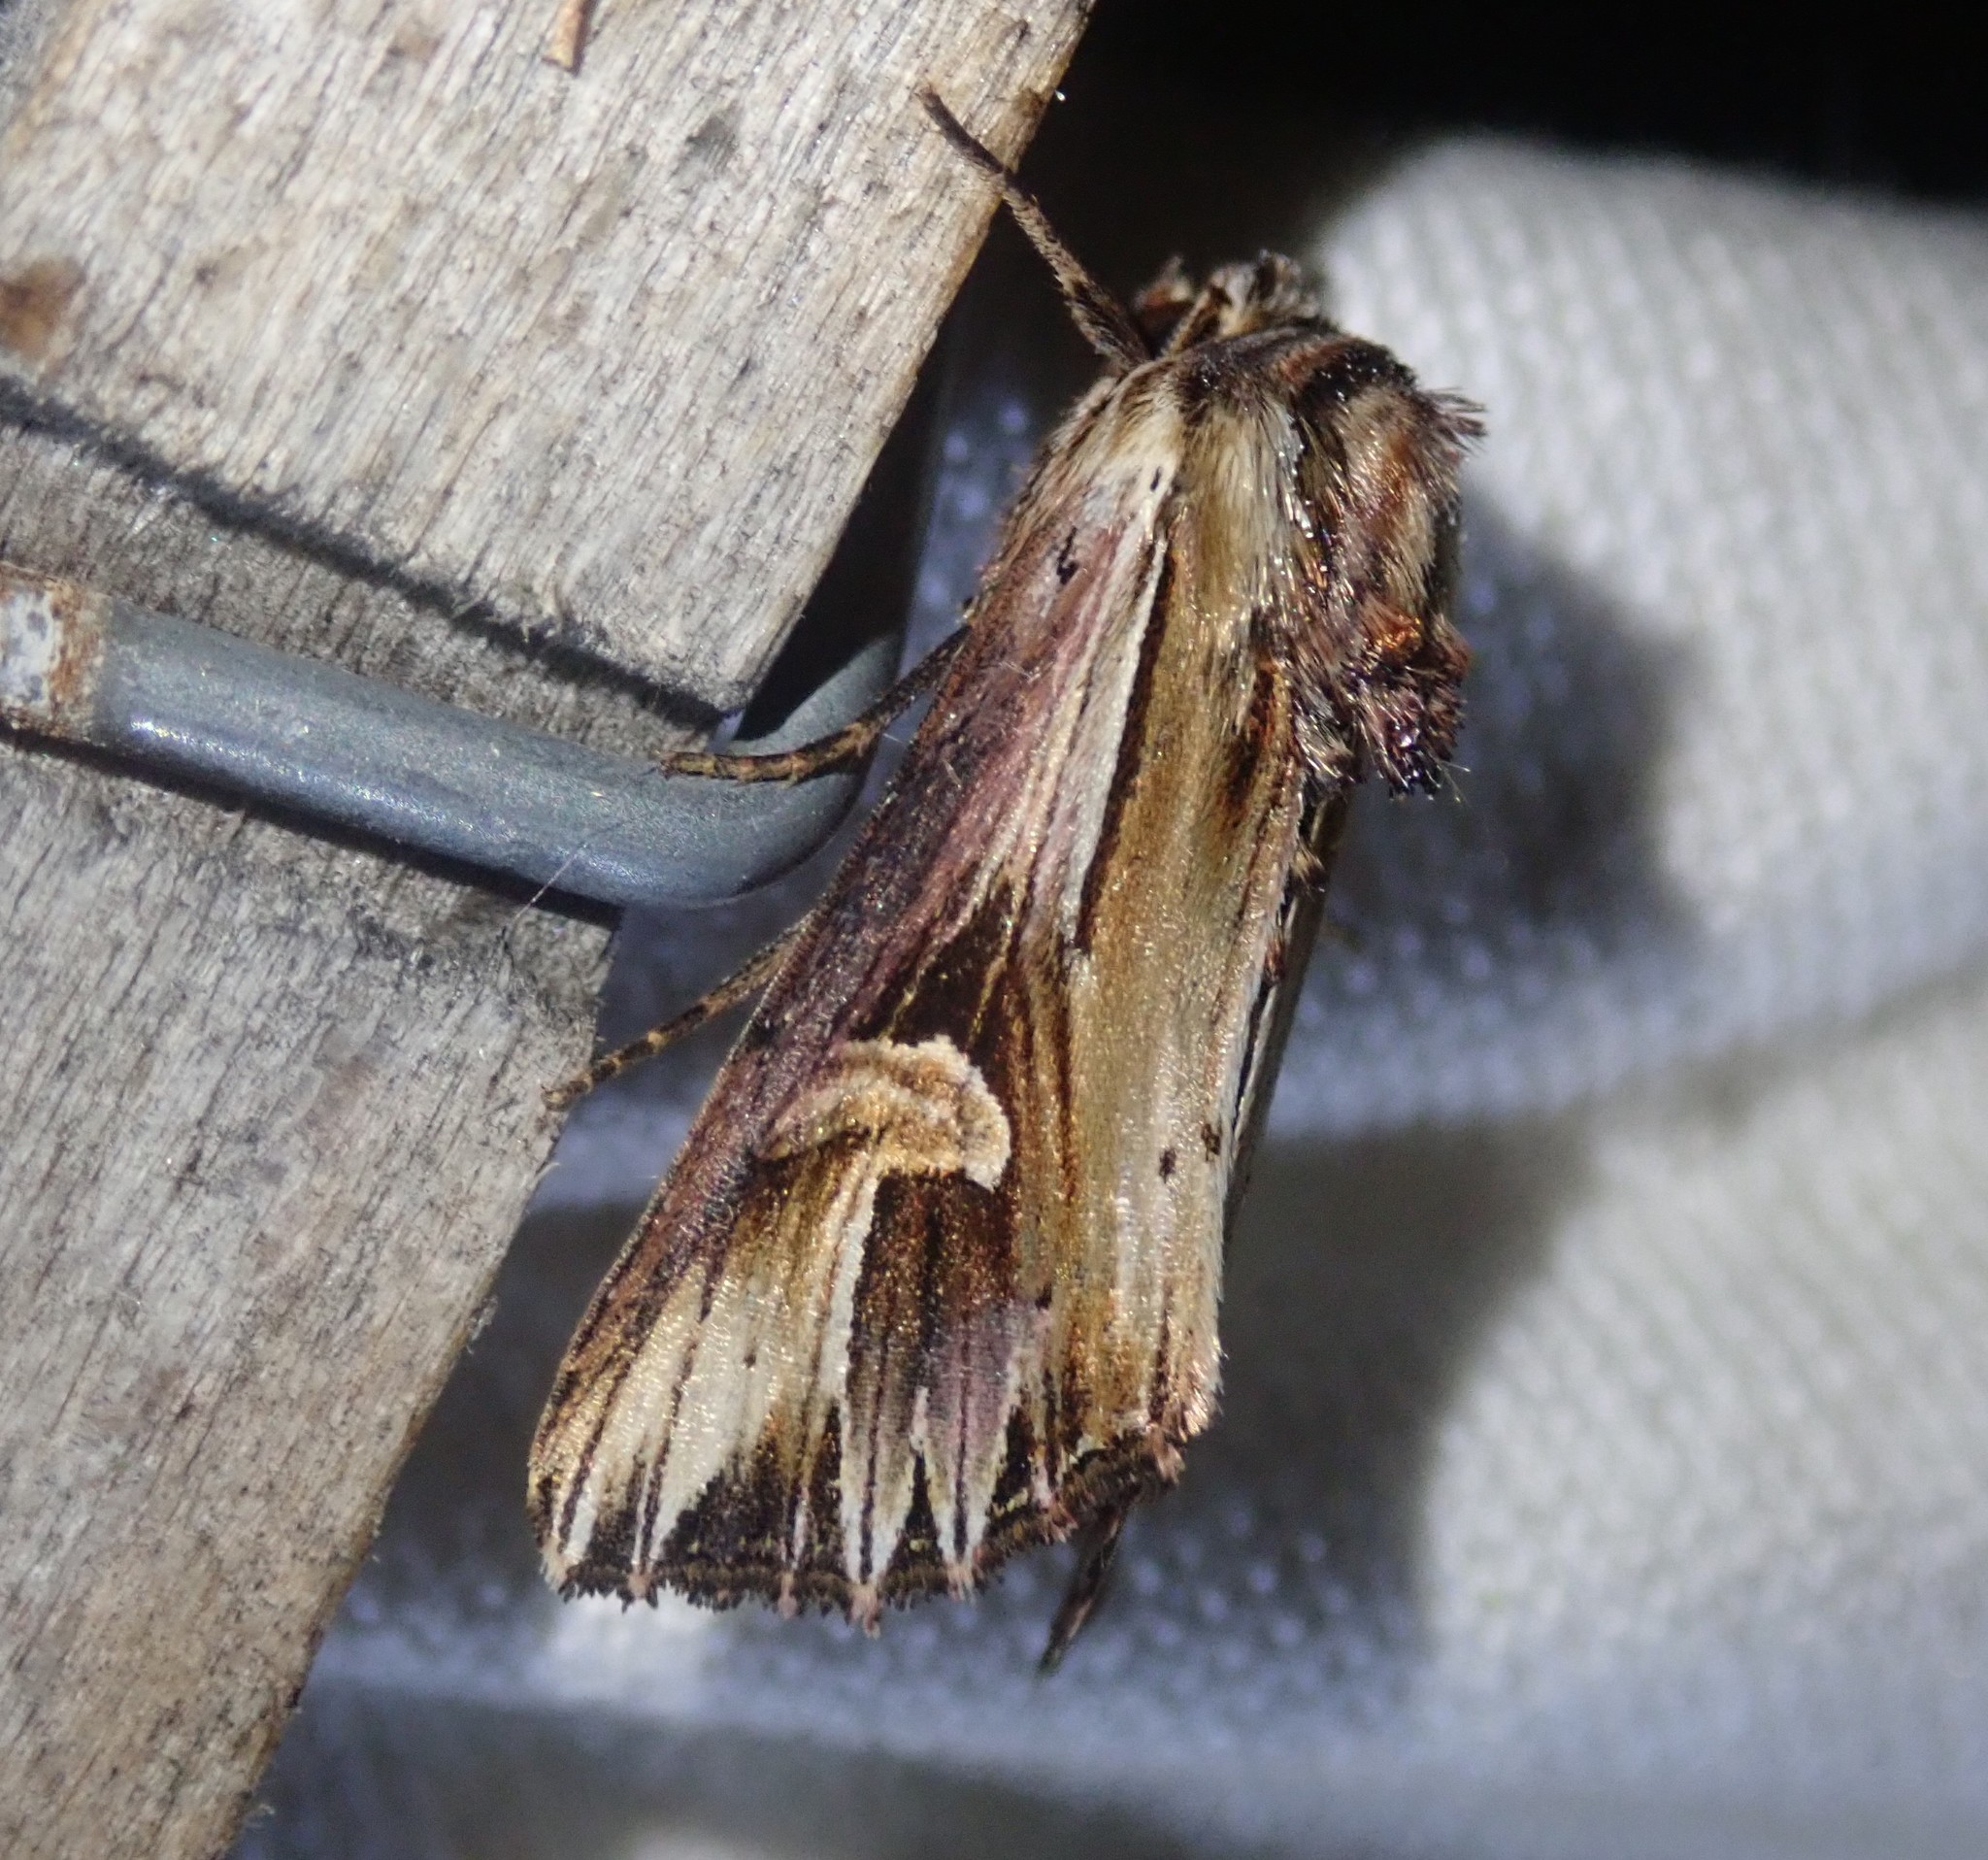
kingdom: Animalia
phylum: Arthropoda
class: Insecta
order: Lepidoptera
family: Noctuidae
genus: Actinotia
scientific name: Actinotia polyodon
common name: Purple cloud
